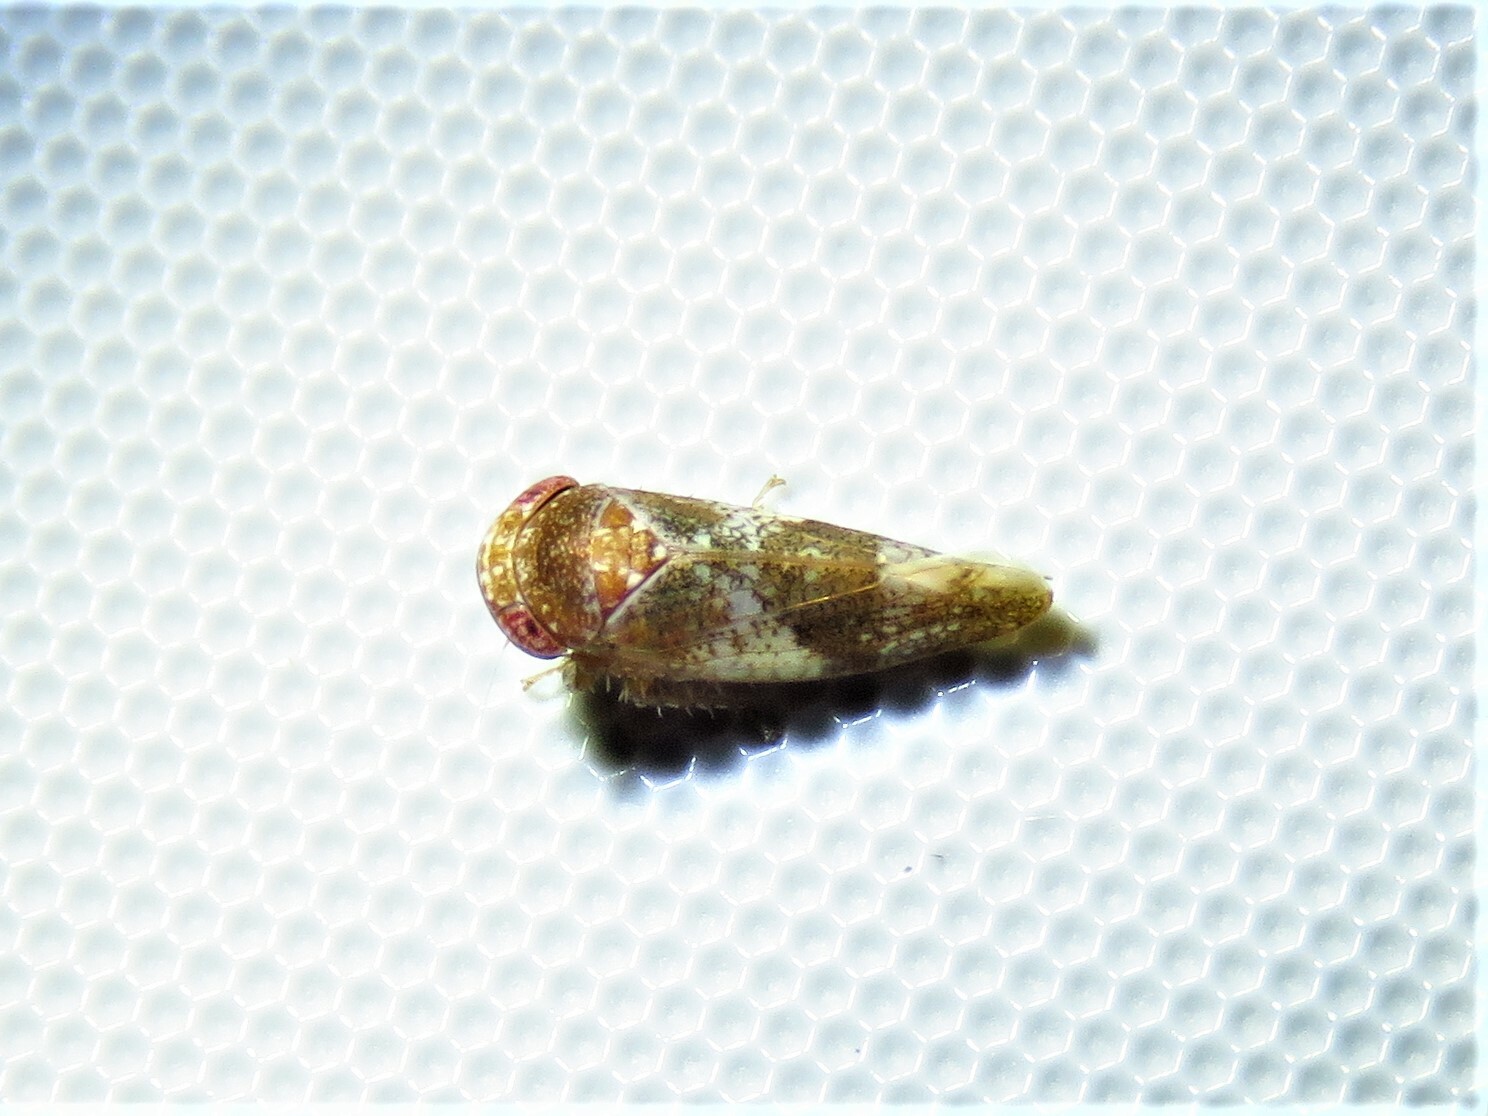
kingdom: Animalia
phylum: Arthropoda
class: Insecta
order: Hemiptera
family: Cicadellidae
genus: Norvellina
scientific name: Norvellina helenae
